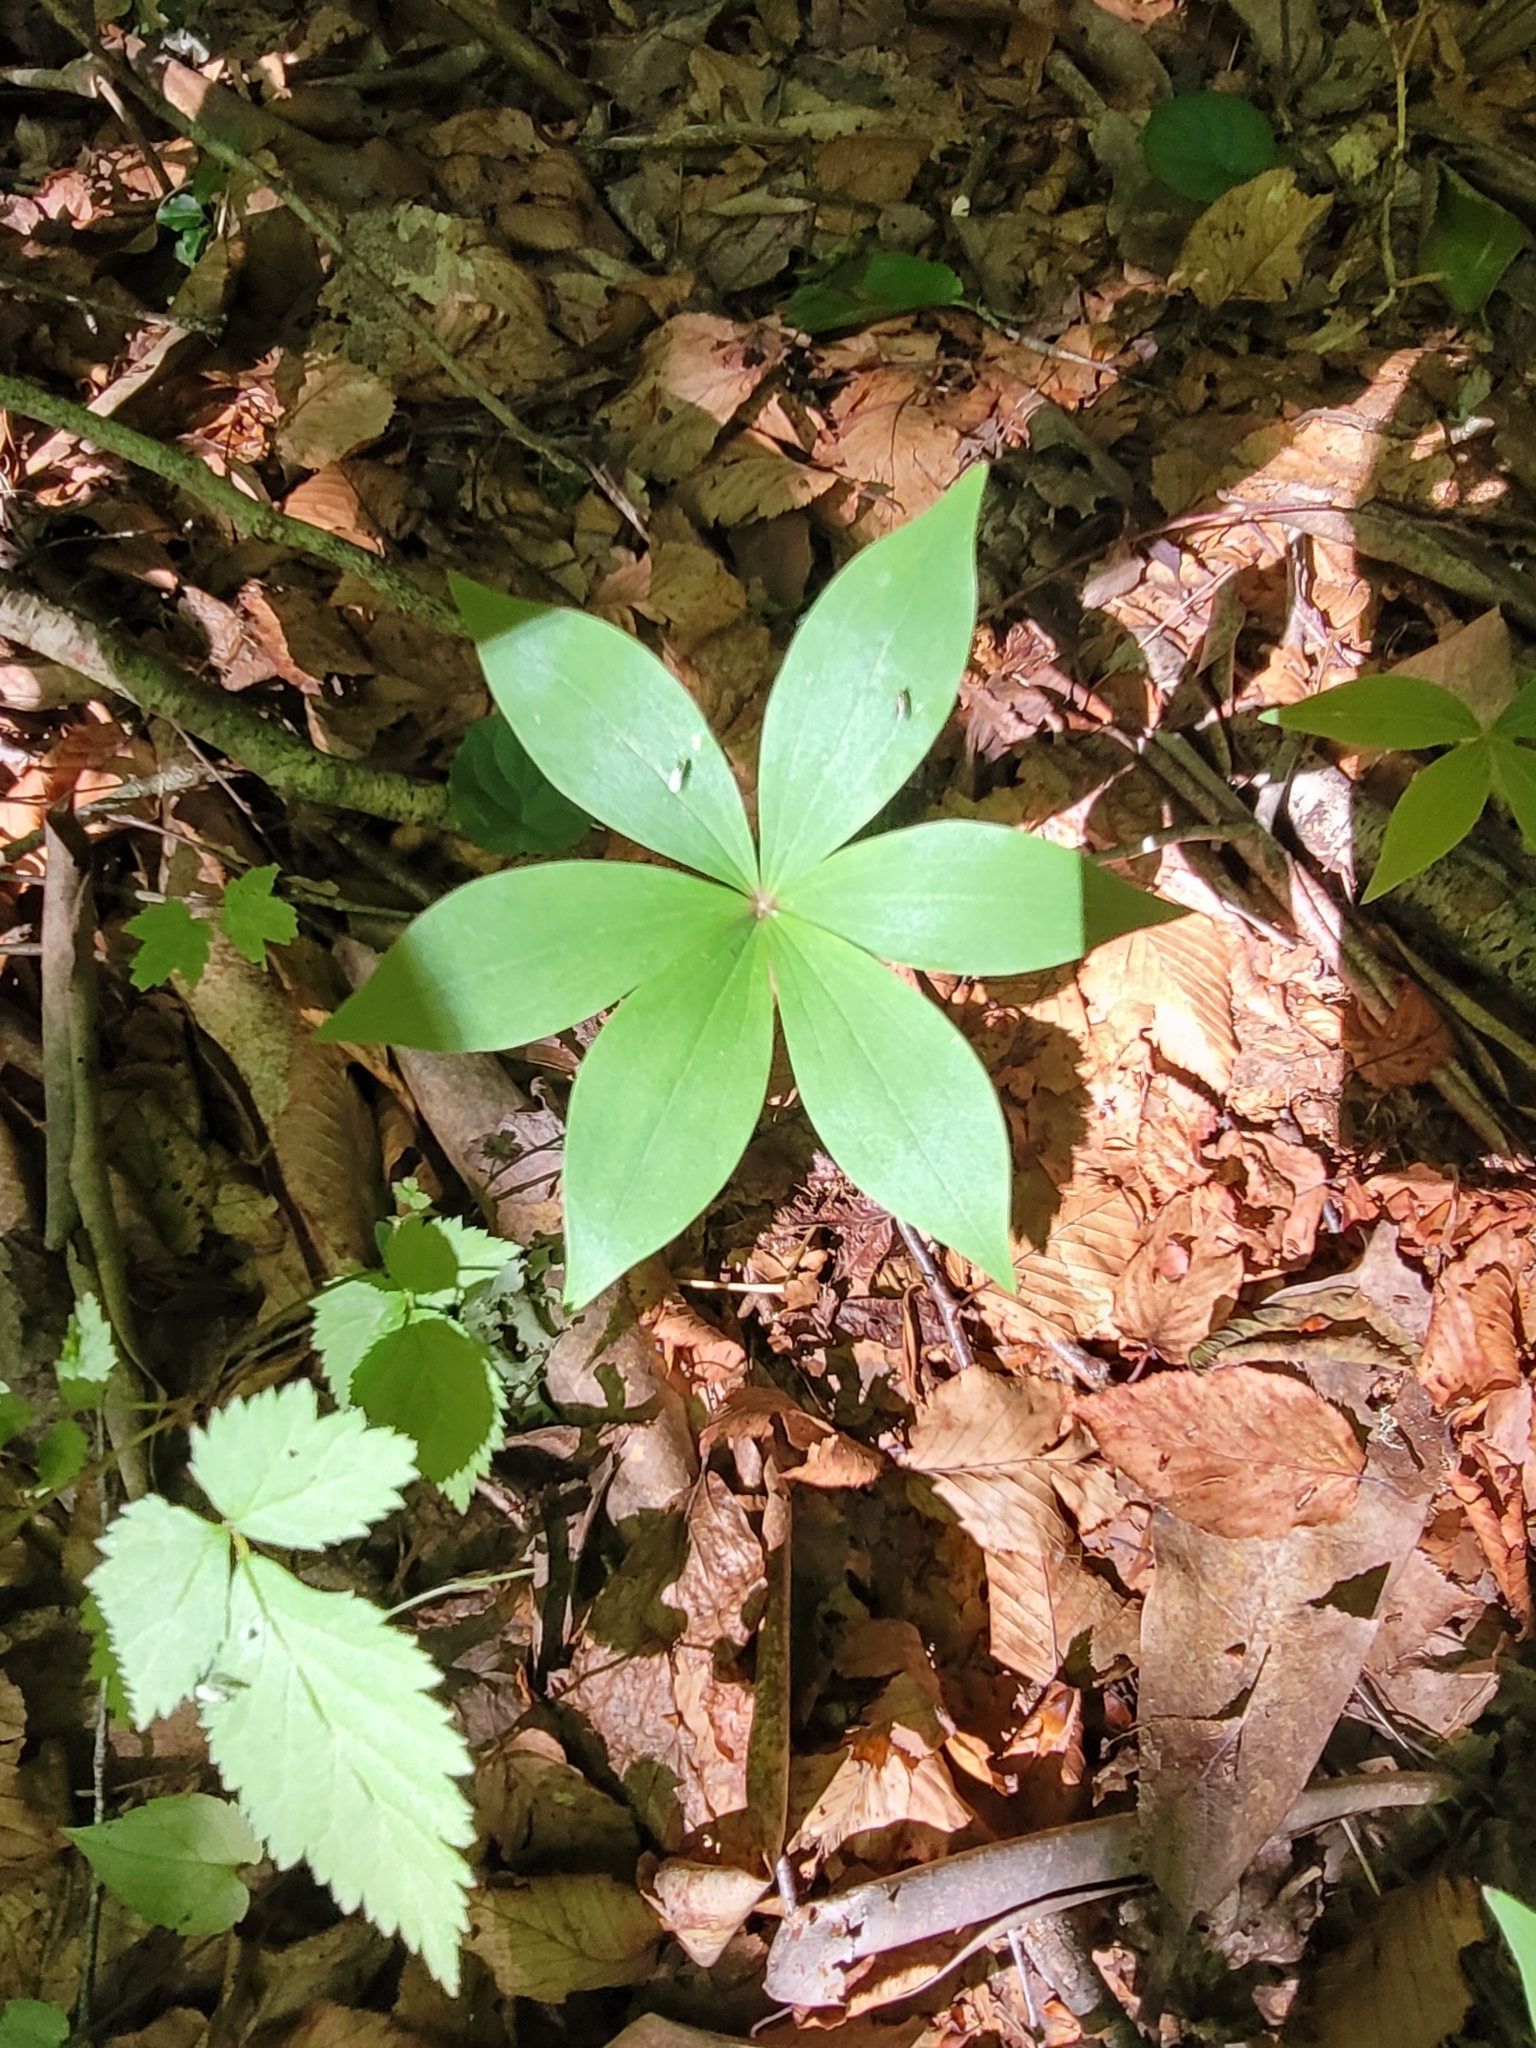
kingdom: Plantae
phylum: Tracheophyta
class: Liliopsida
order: Liliales
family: Liliaceae
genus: Medeola
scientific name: Medeola virginiana
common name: Indian cucumber-root
